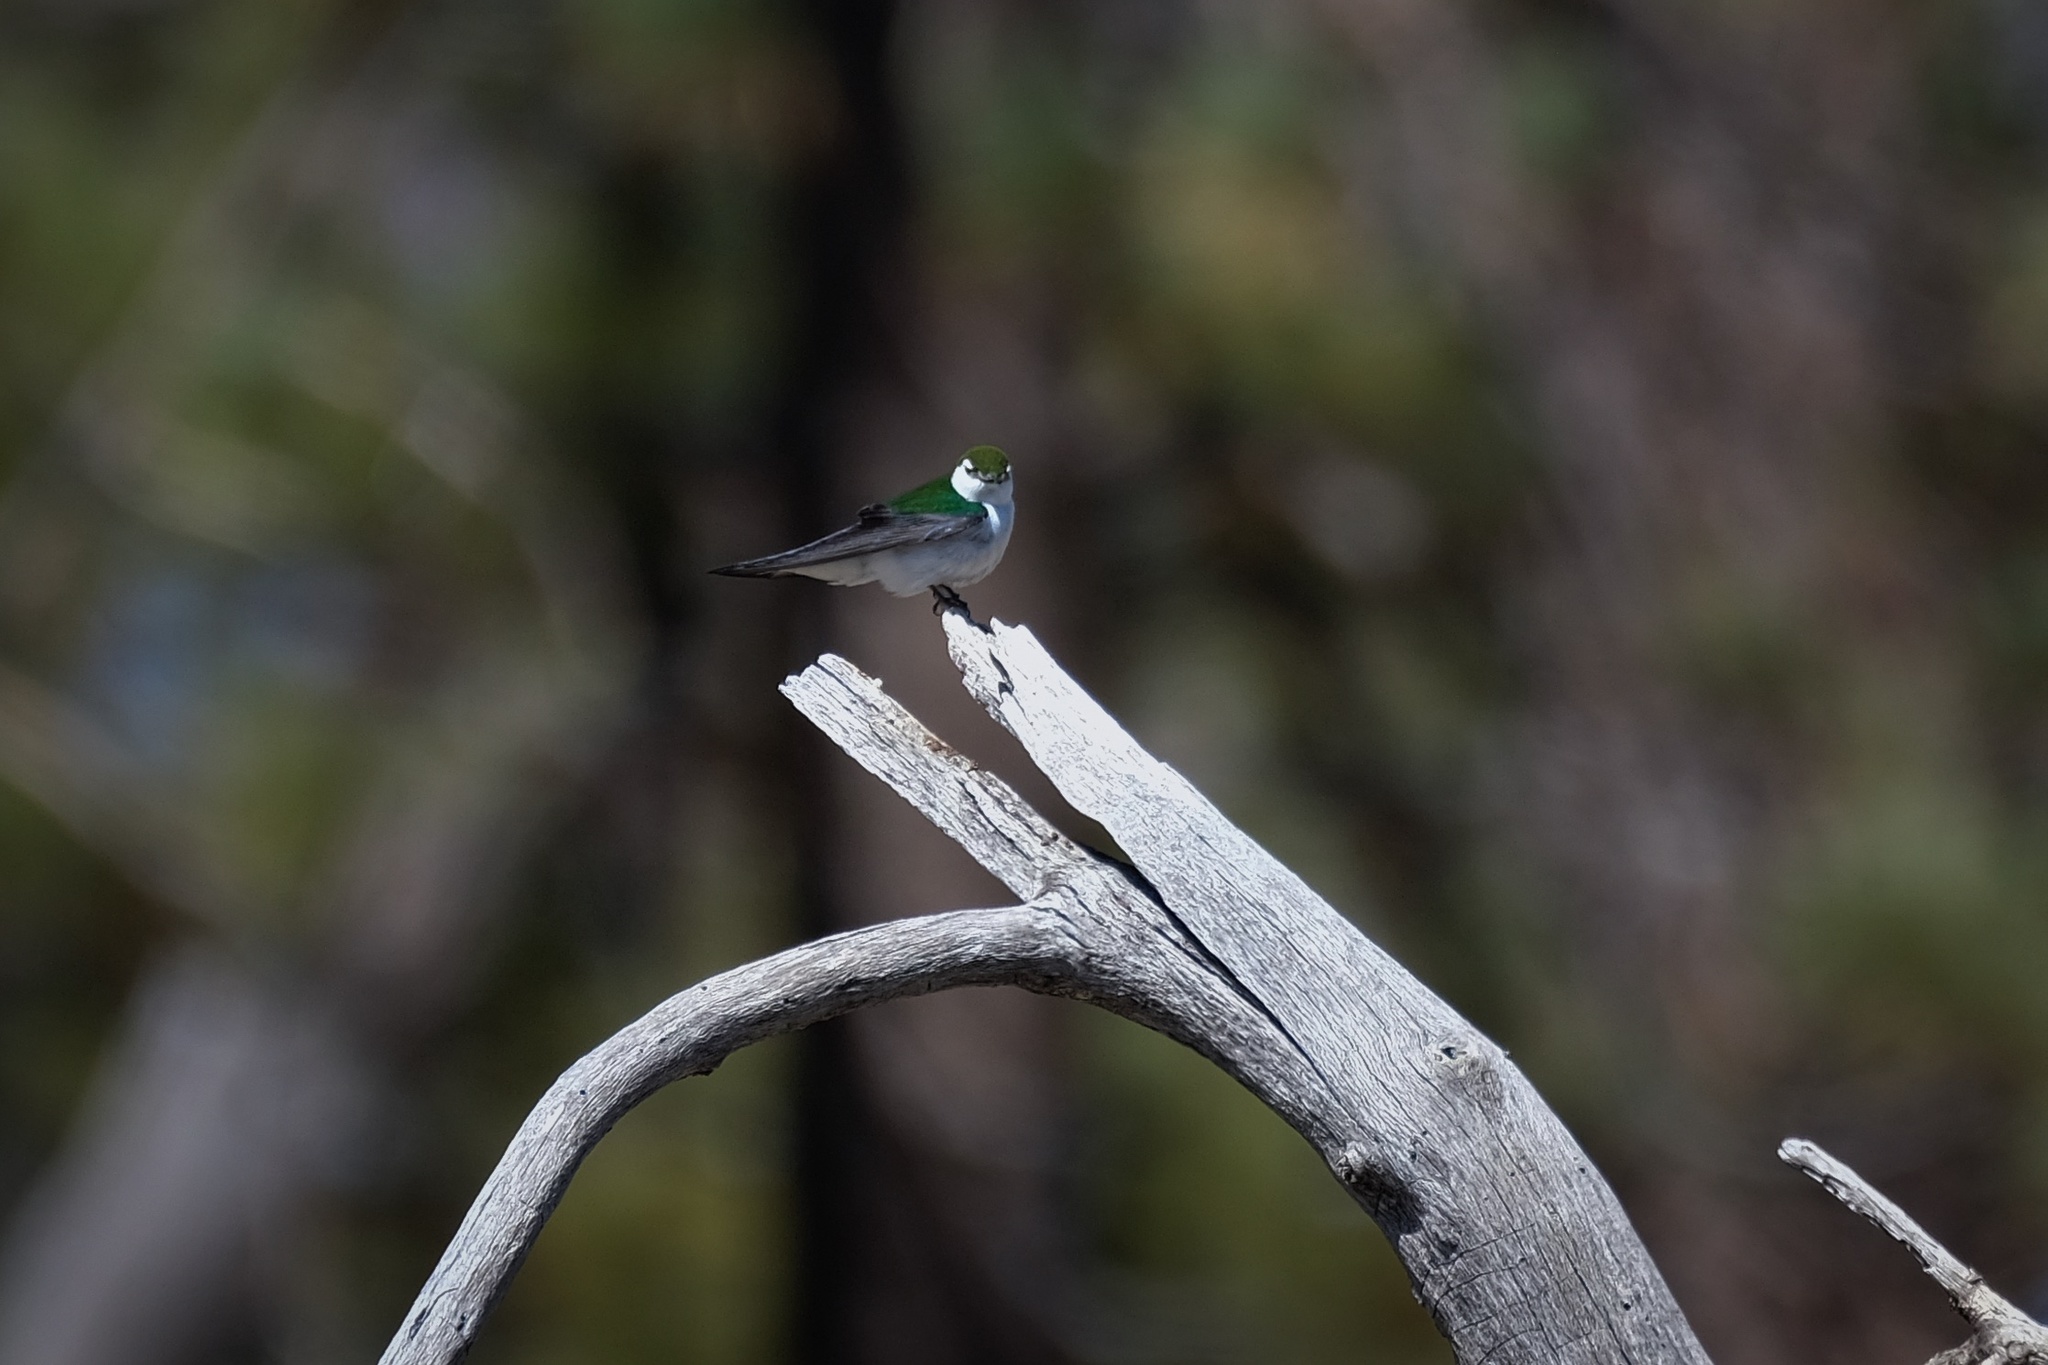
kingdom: Animalia
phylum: Chordata
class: Aves
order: Passeriformes
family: Hirundinidae
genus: Tachycineta
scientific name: Tachycineta thalassina
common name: Violet-green swallow
